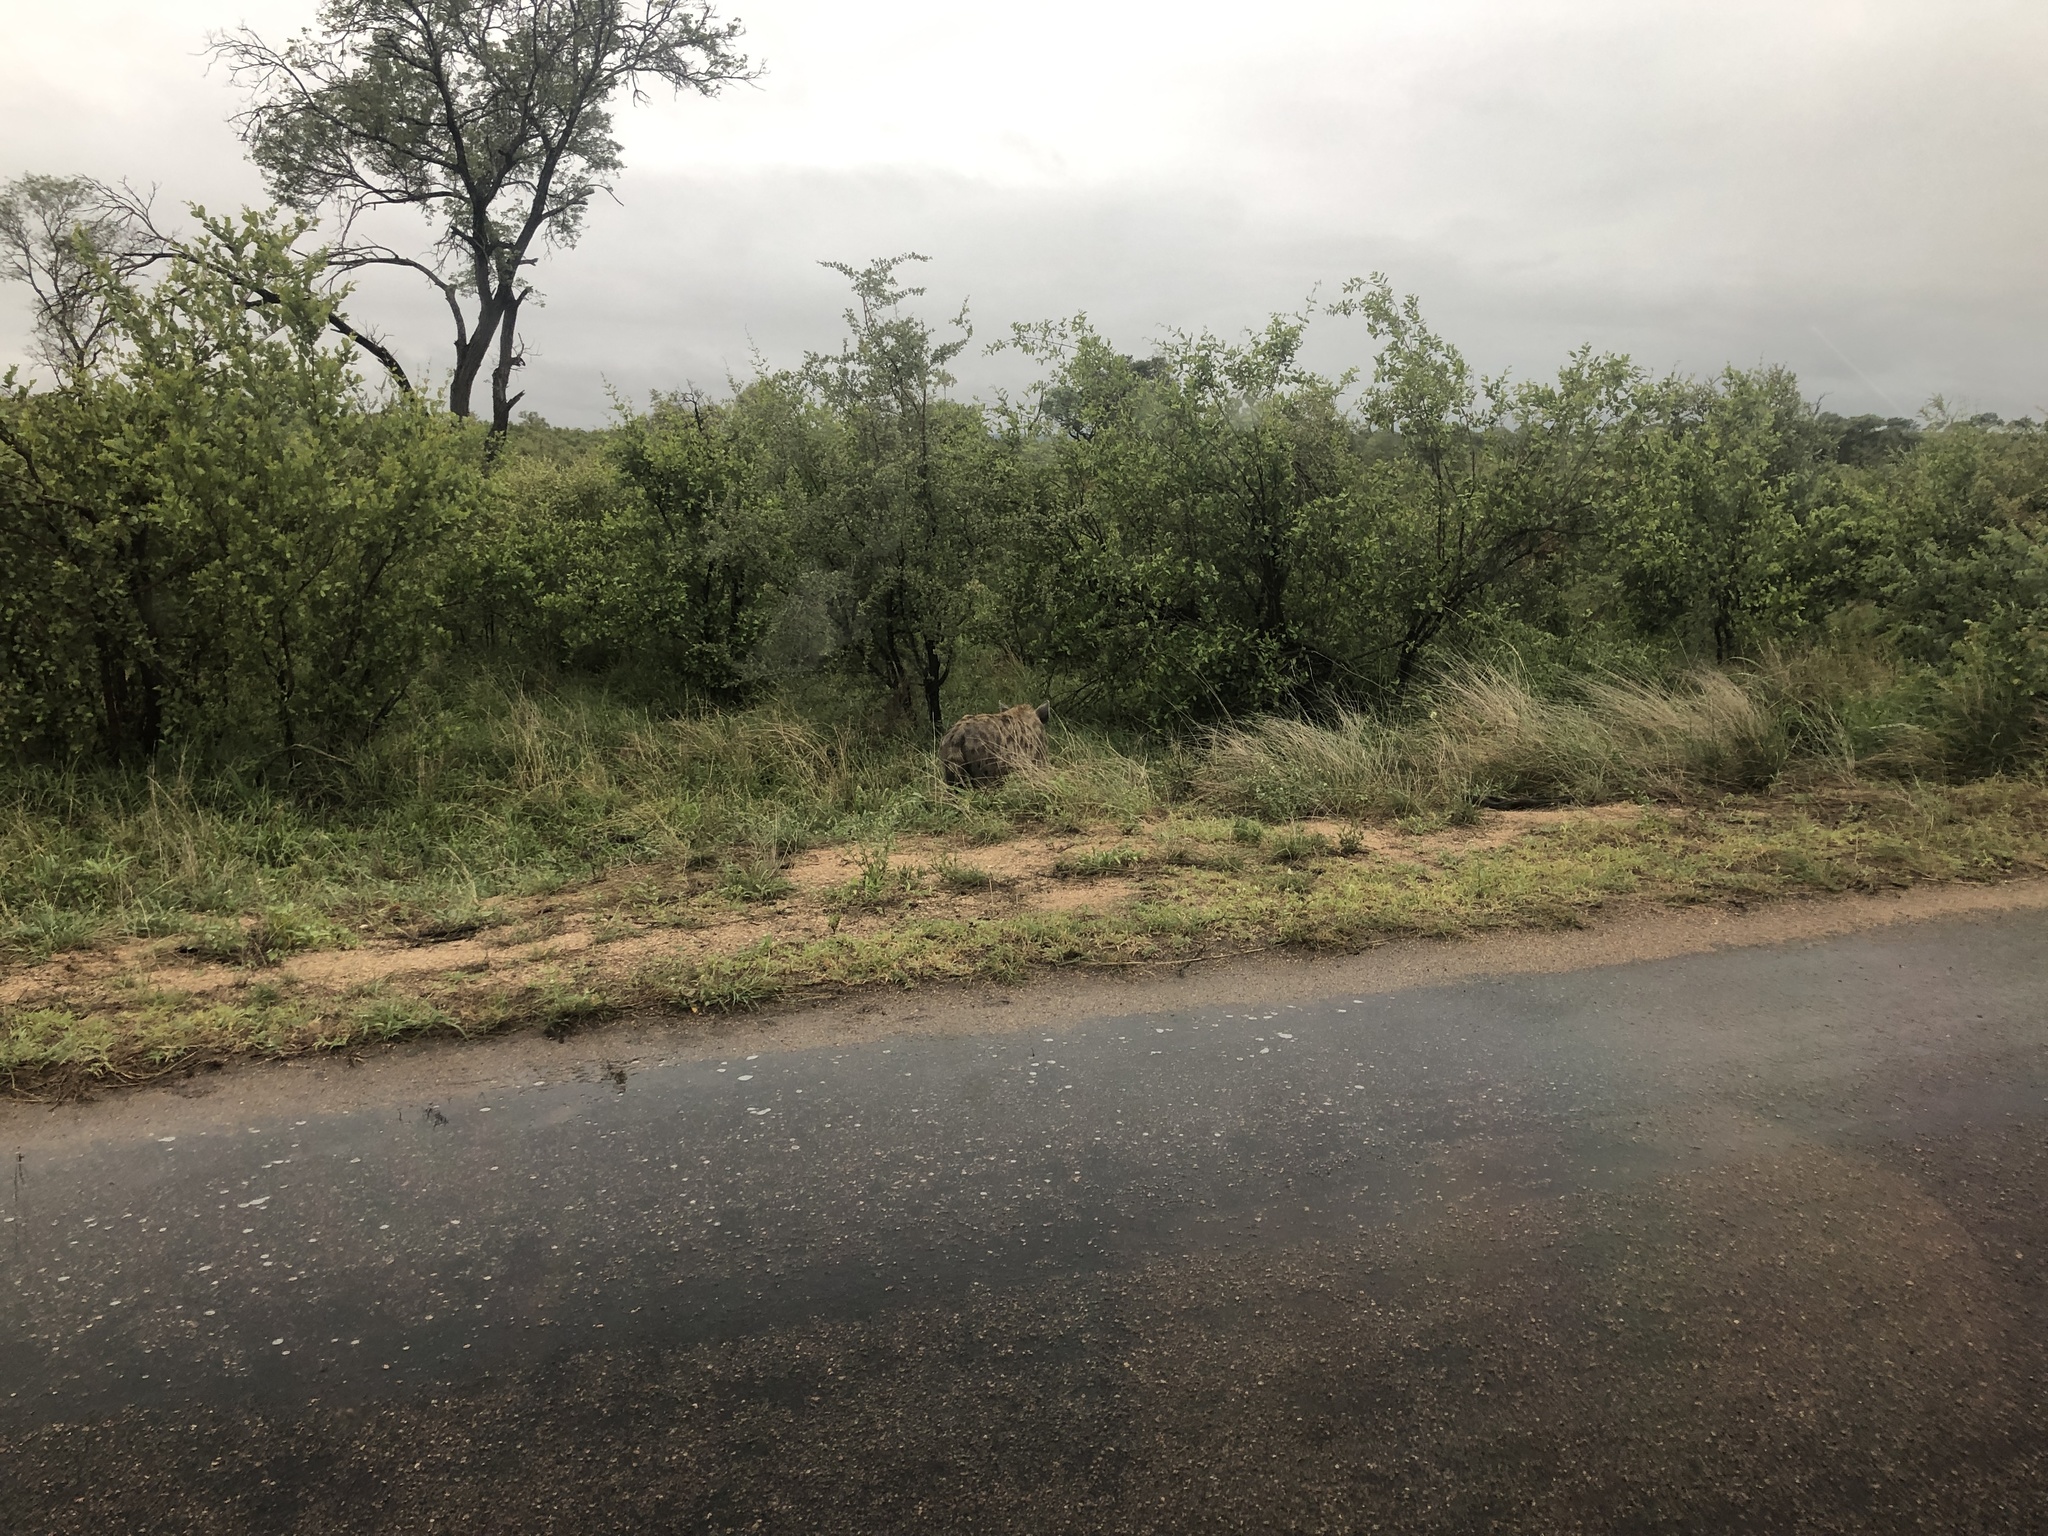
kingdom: Animalia
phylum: Chordata
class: Mammalia
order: Carnivora
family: Hyaenidae
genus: Crocuta
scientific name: Crocuta crocuta
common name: Spotted hyaena
